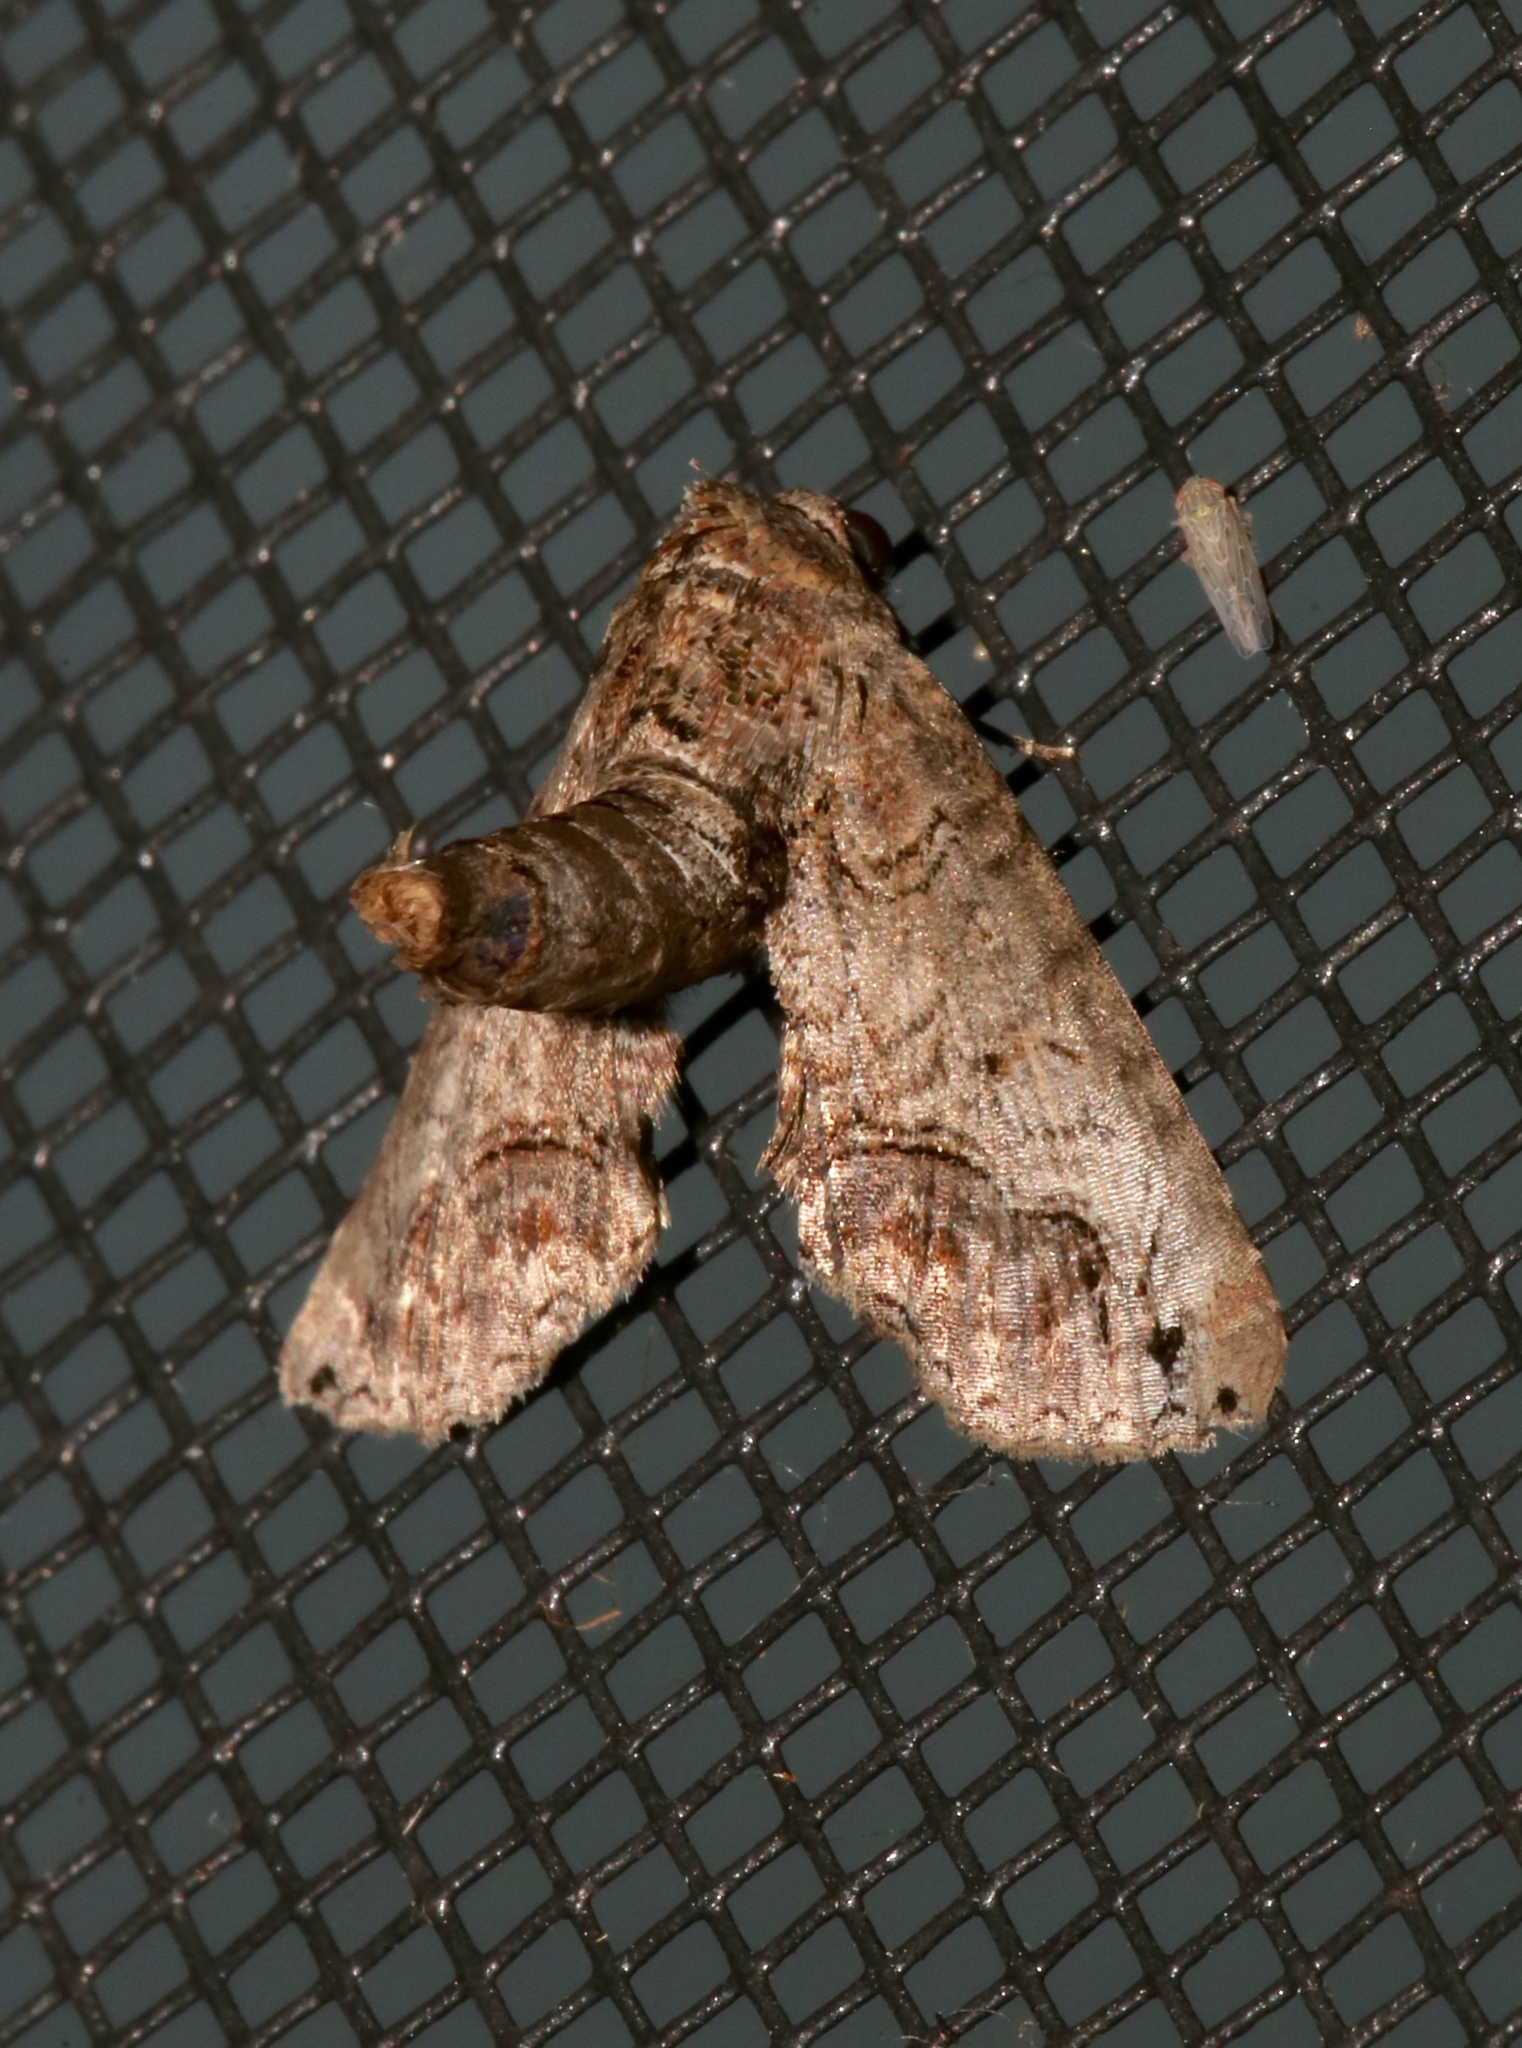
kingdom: Animalia
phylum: Arthropoda
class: Insecta
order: Lepidoptera
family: Euteliidae
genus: Paectes
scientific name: Paectes abrostoloides
